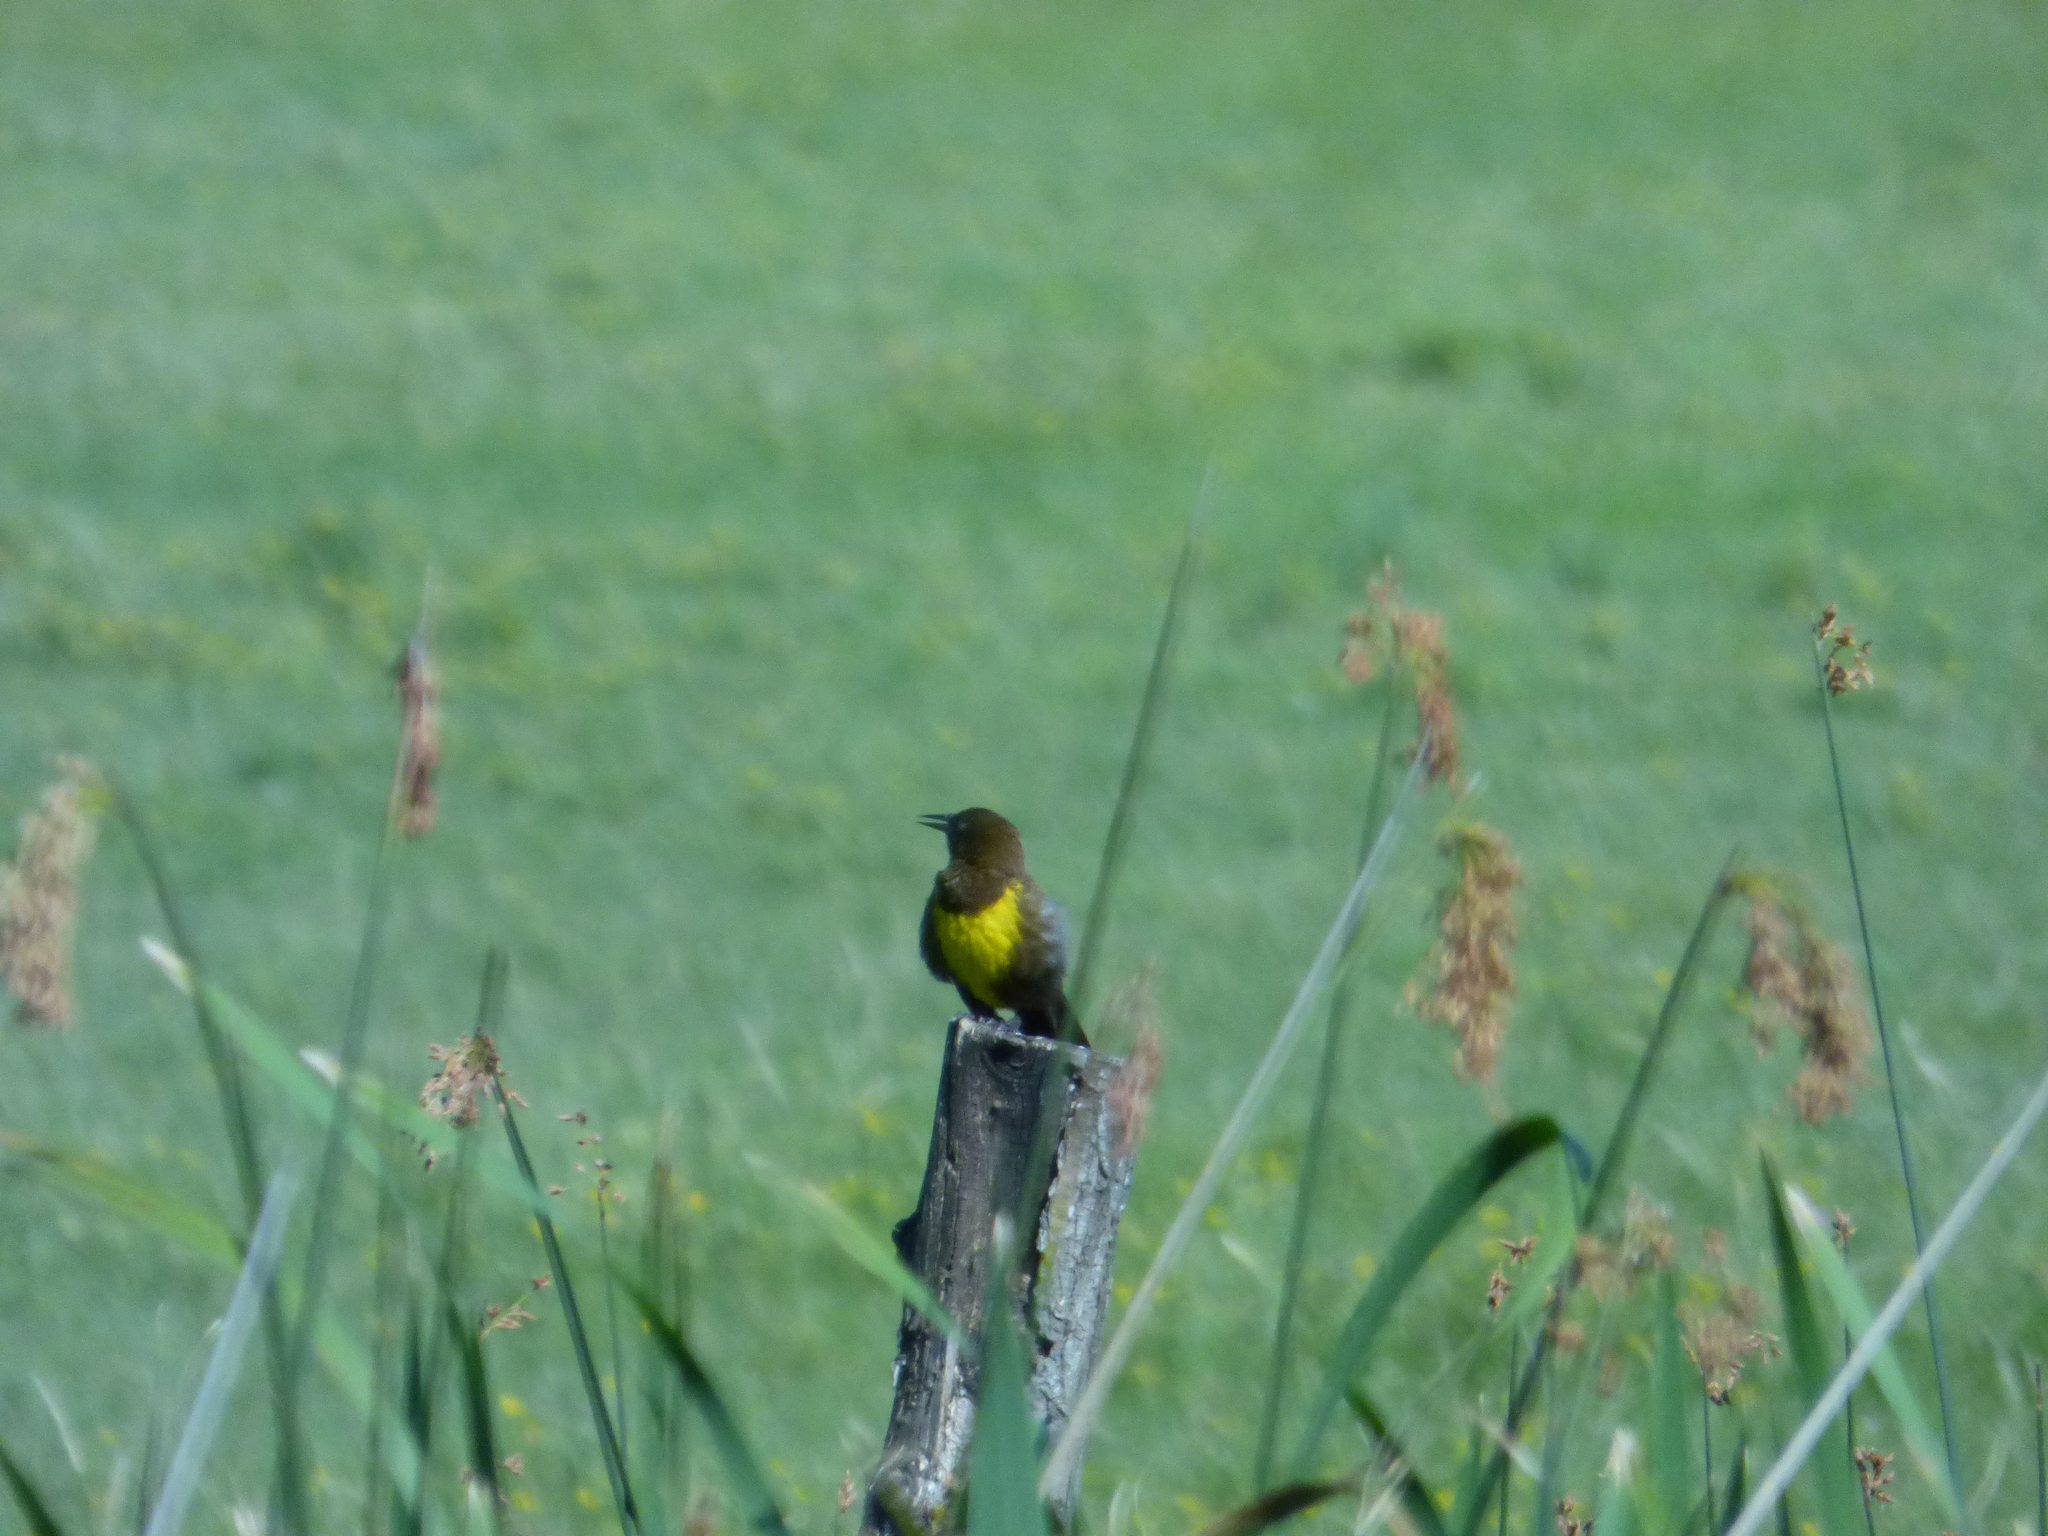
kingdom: Animalia
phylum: Chordata
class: Aves
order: Passeriformes
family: Icteridae
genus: Pseudoleistes
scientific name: Pseudoleistes virescens
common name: Brown-and-yellow marshbird
